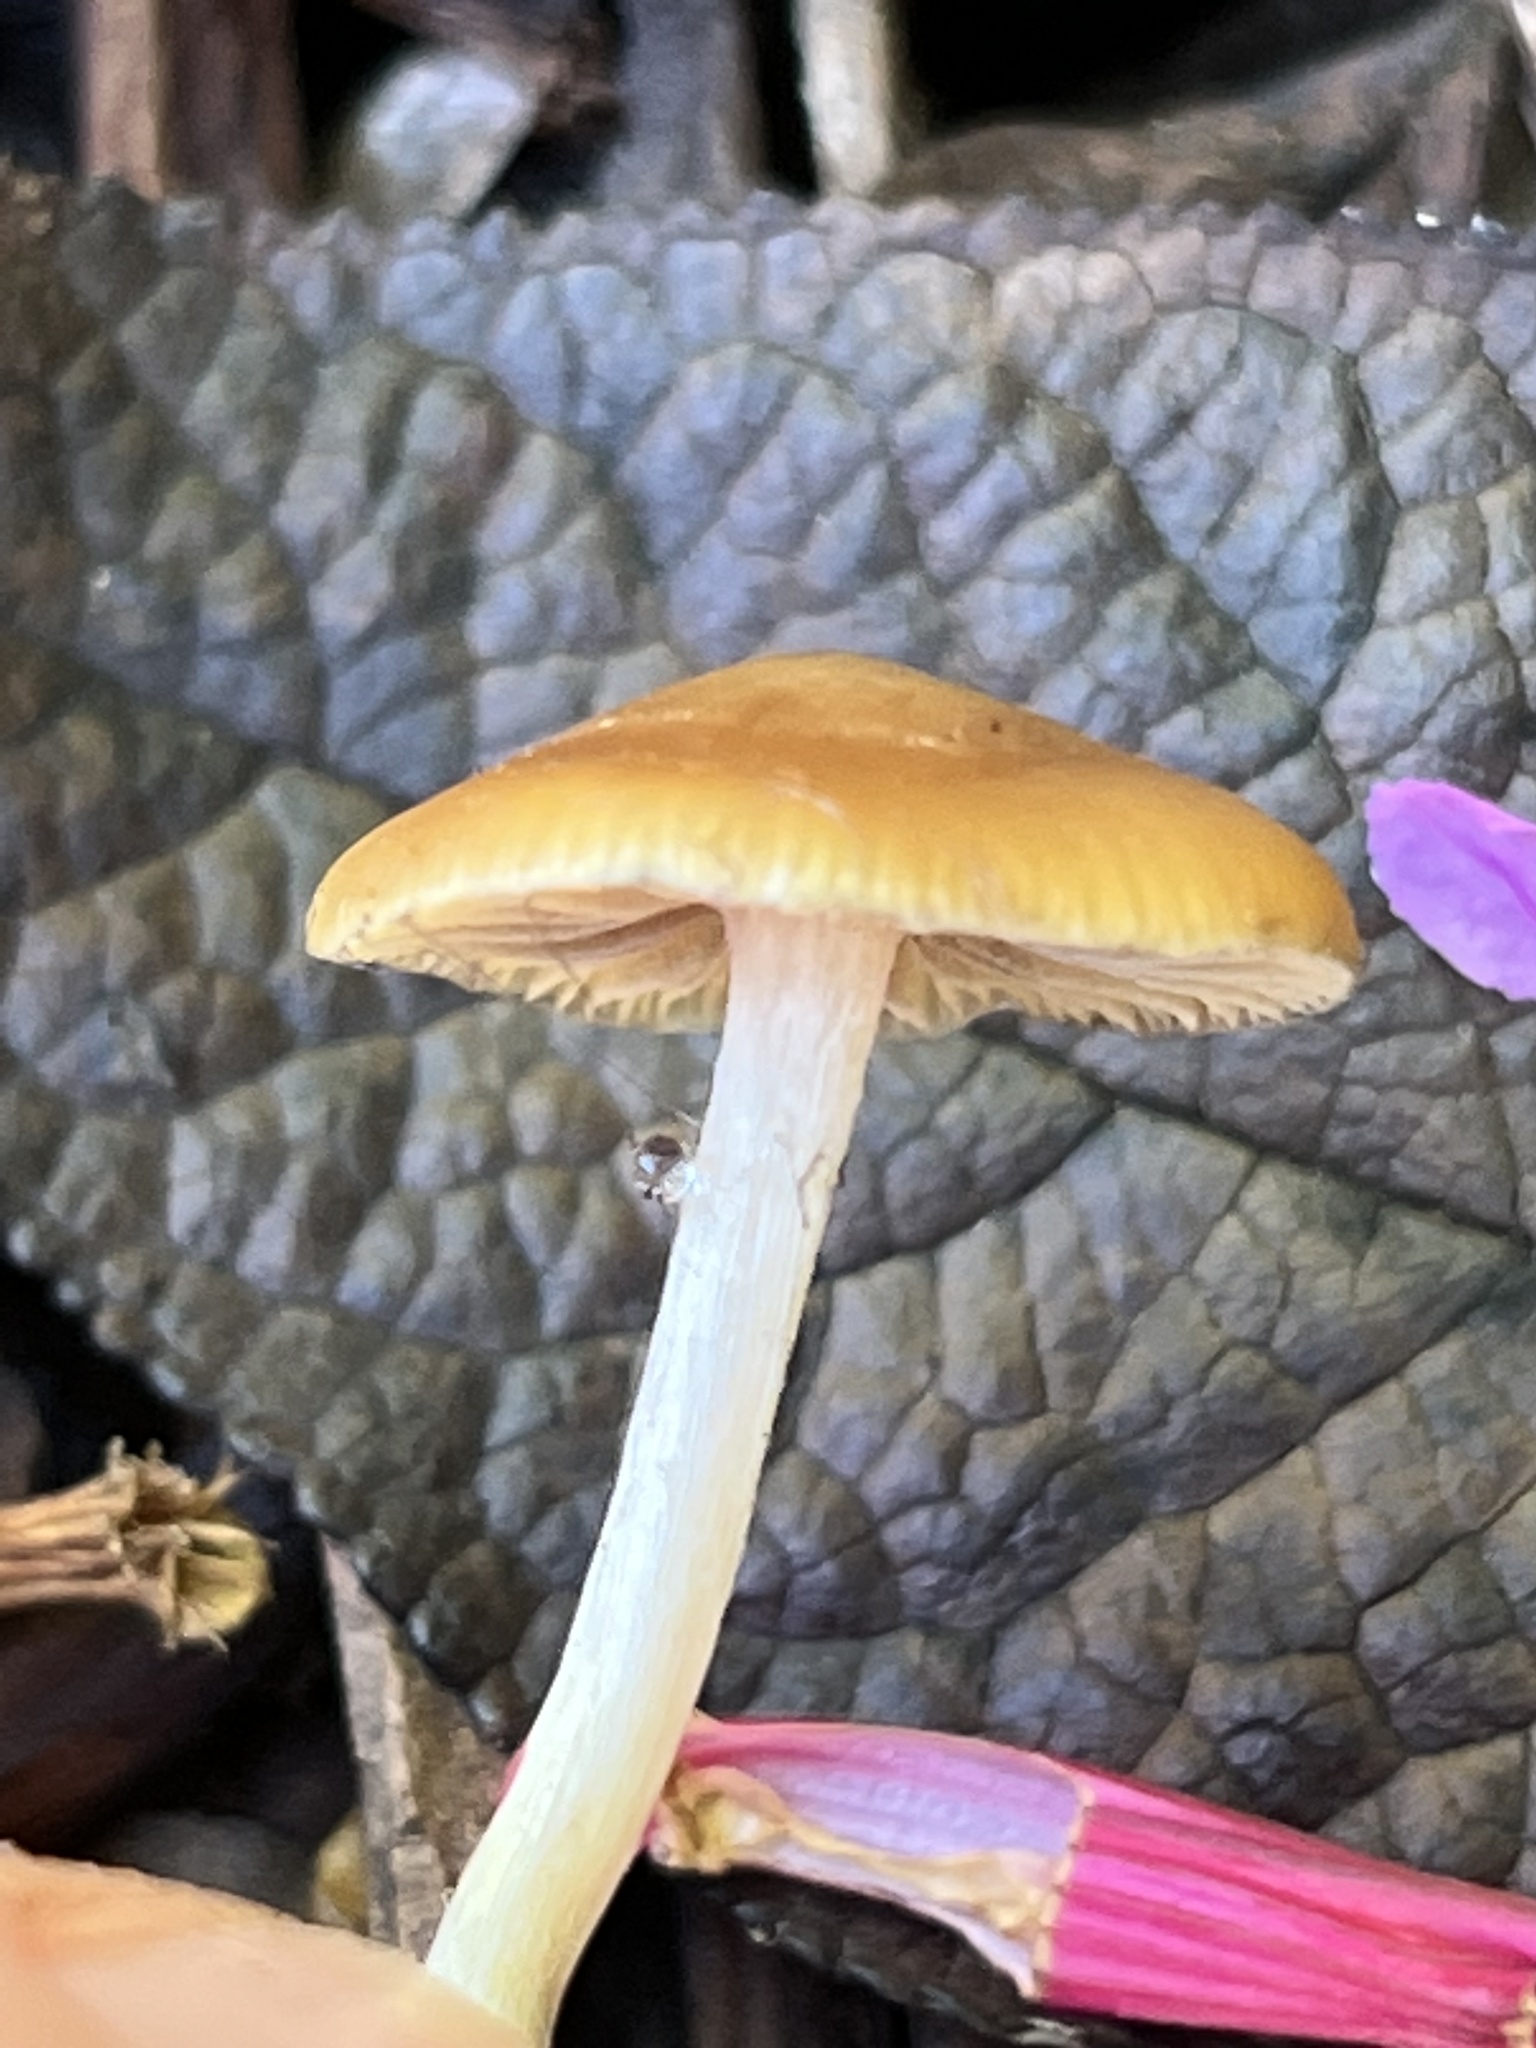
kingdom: Fungi
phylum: Basidiomycota
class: Agaricomycetes
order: Agaricales
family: Hymenogastraceae
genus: Psilocybe
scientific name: Psilocybe cyanescens
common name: Blueleg brownie
